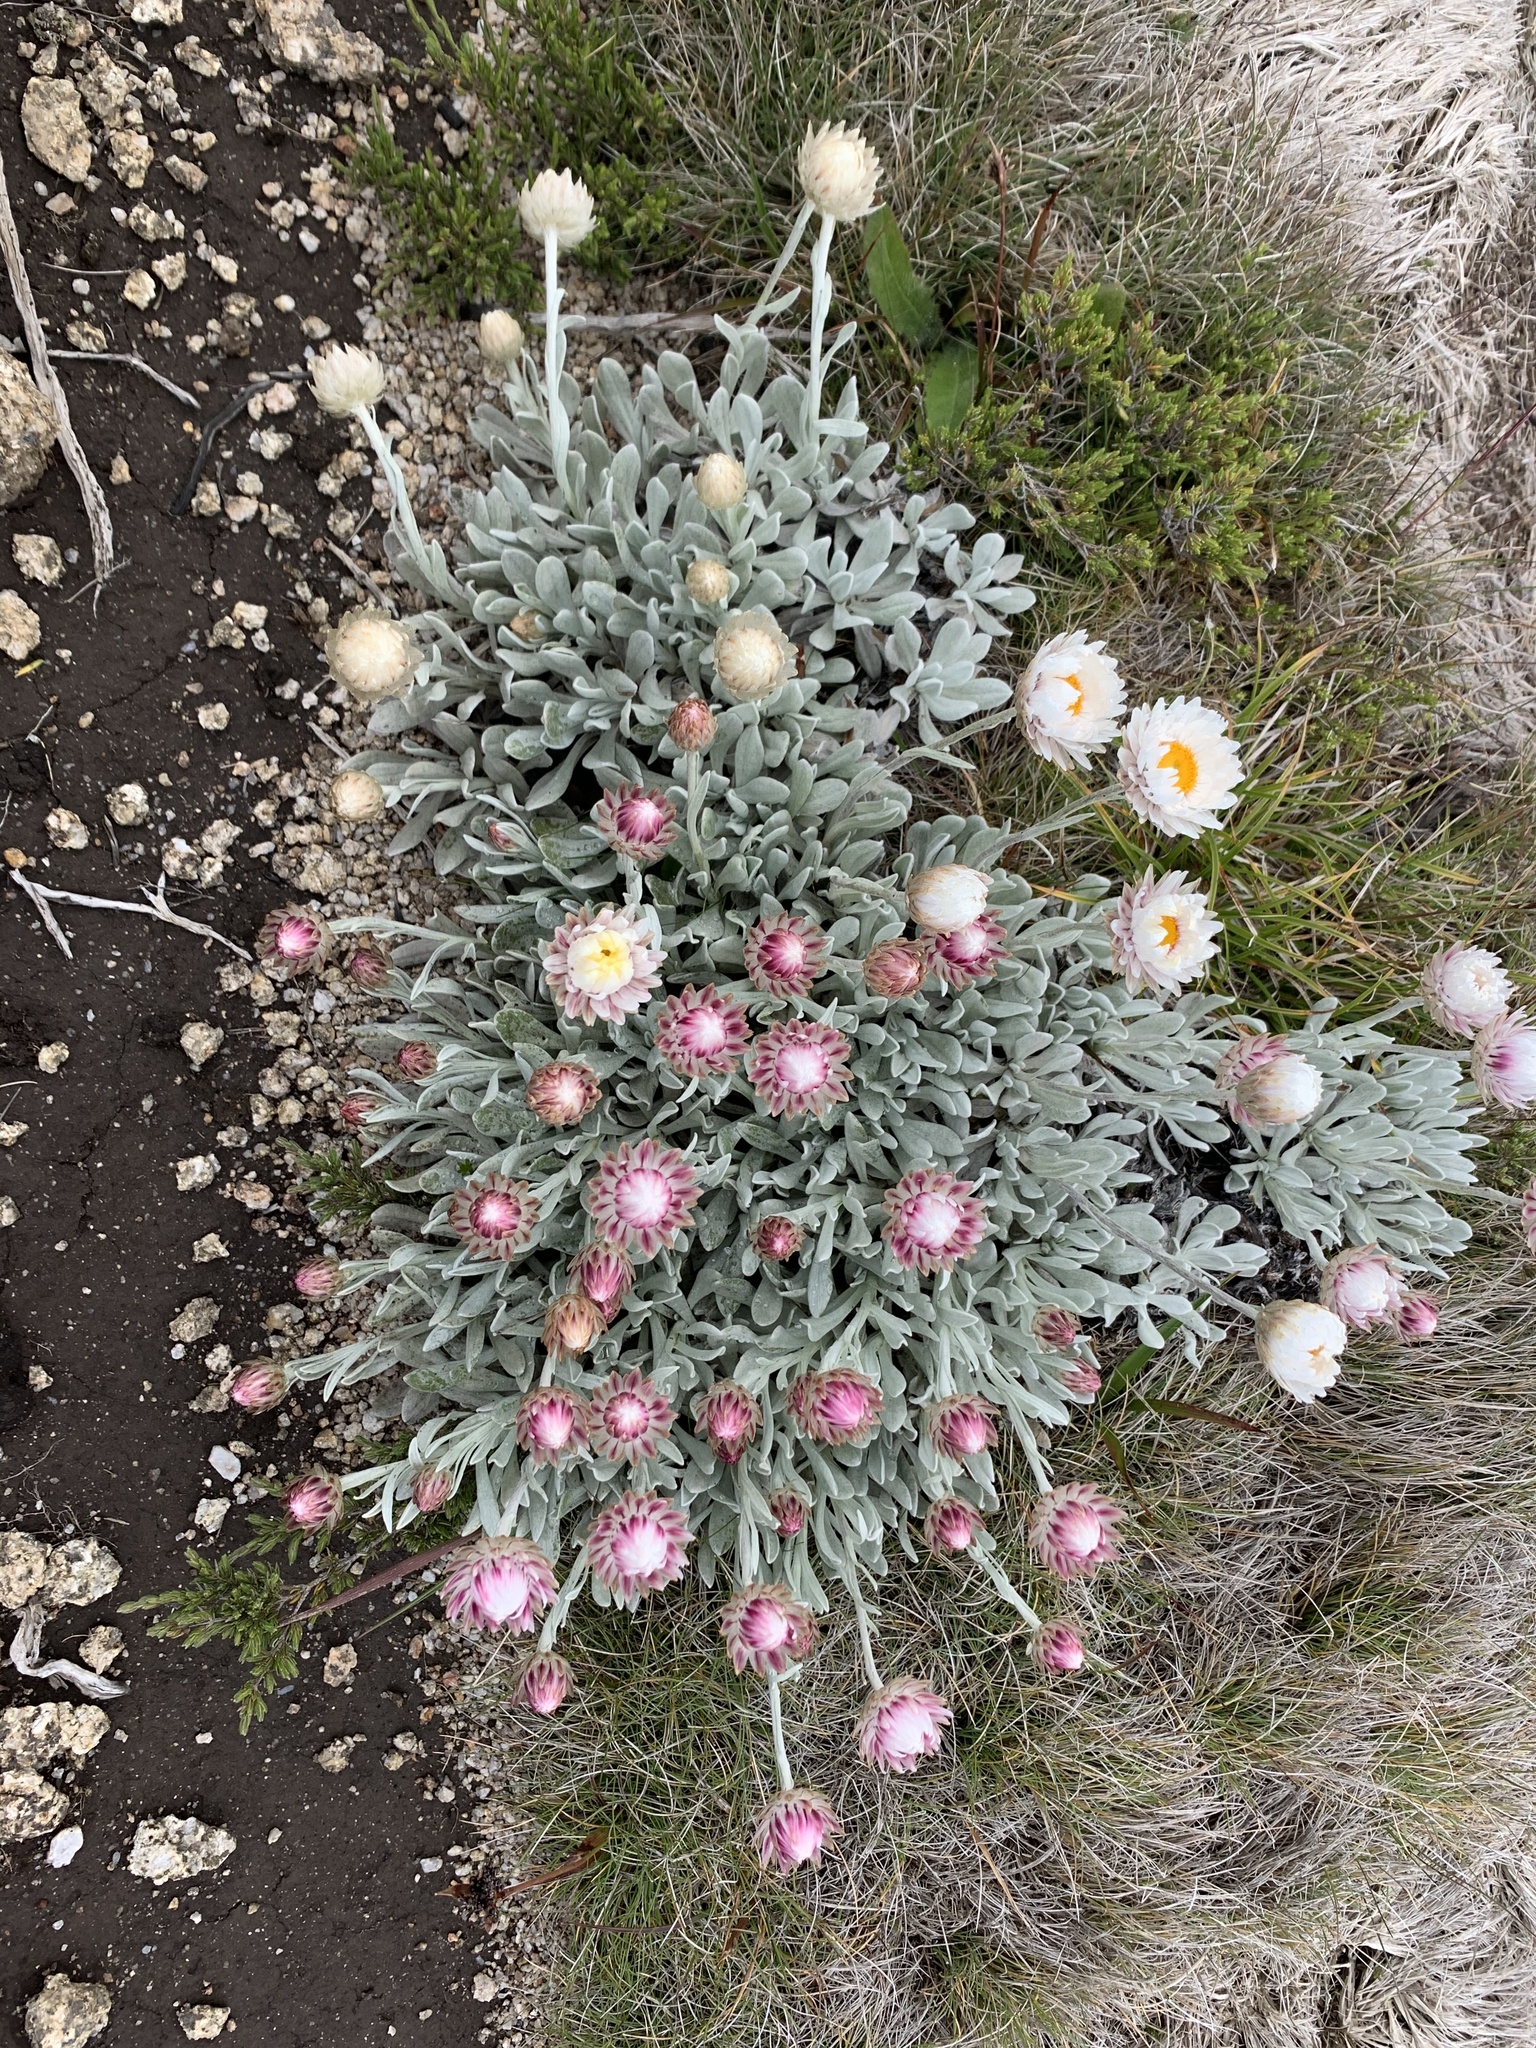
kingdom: Plantae
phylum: Tracheophyta
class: Magnoliopsida
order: Asterales
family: Asteraceae
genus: Leucochrysum
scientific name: Leucochrysum alpinum
